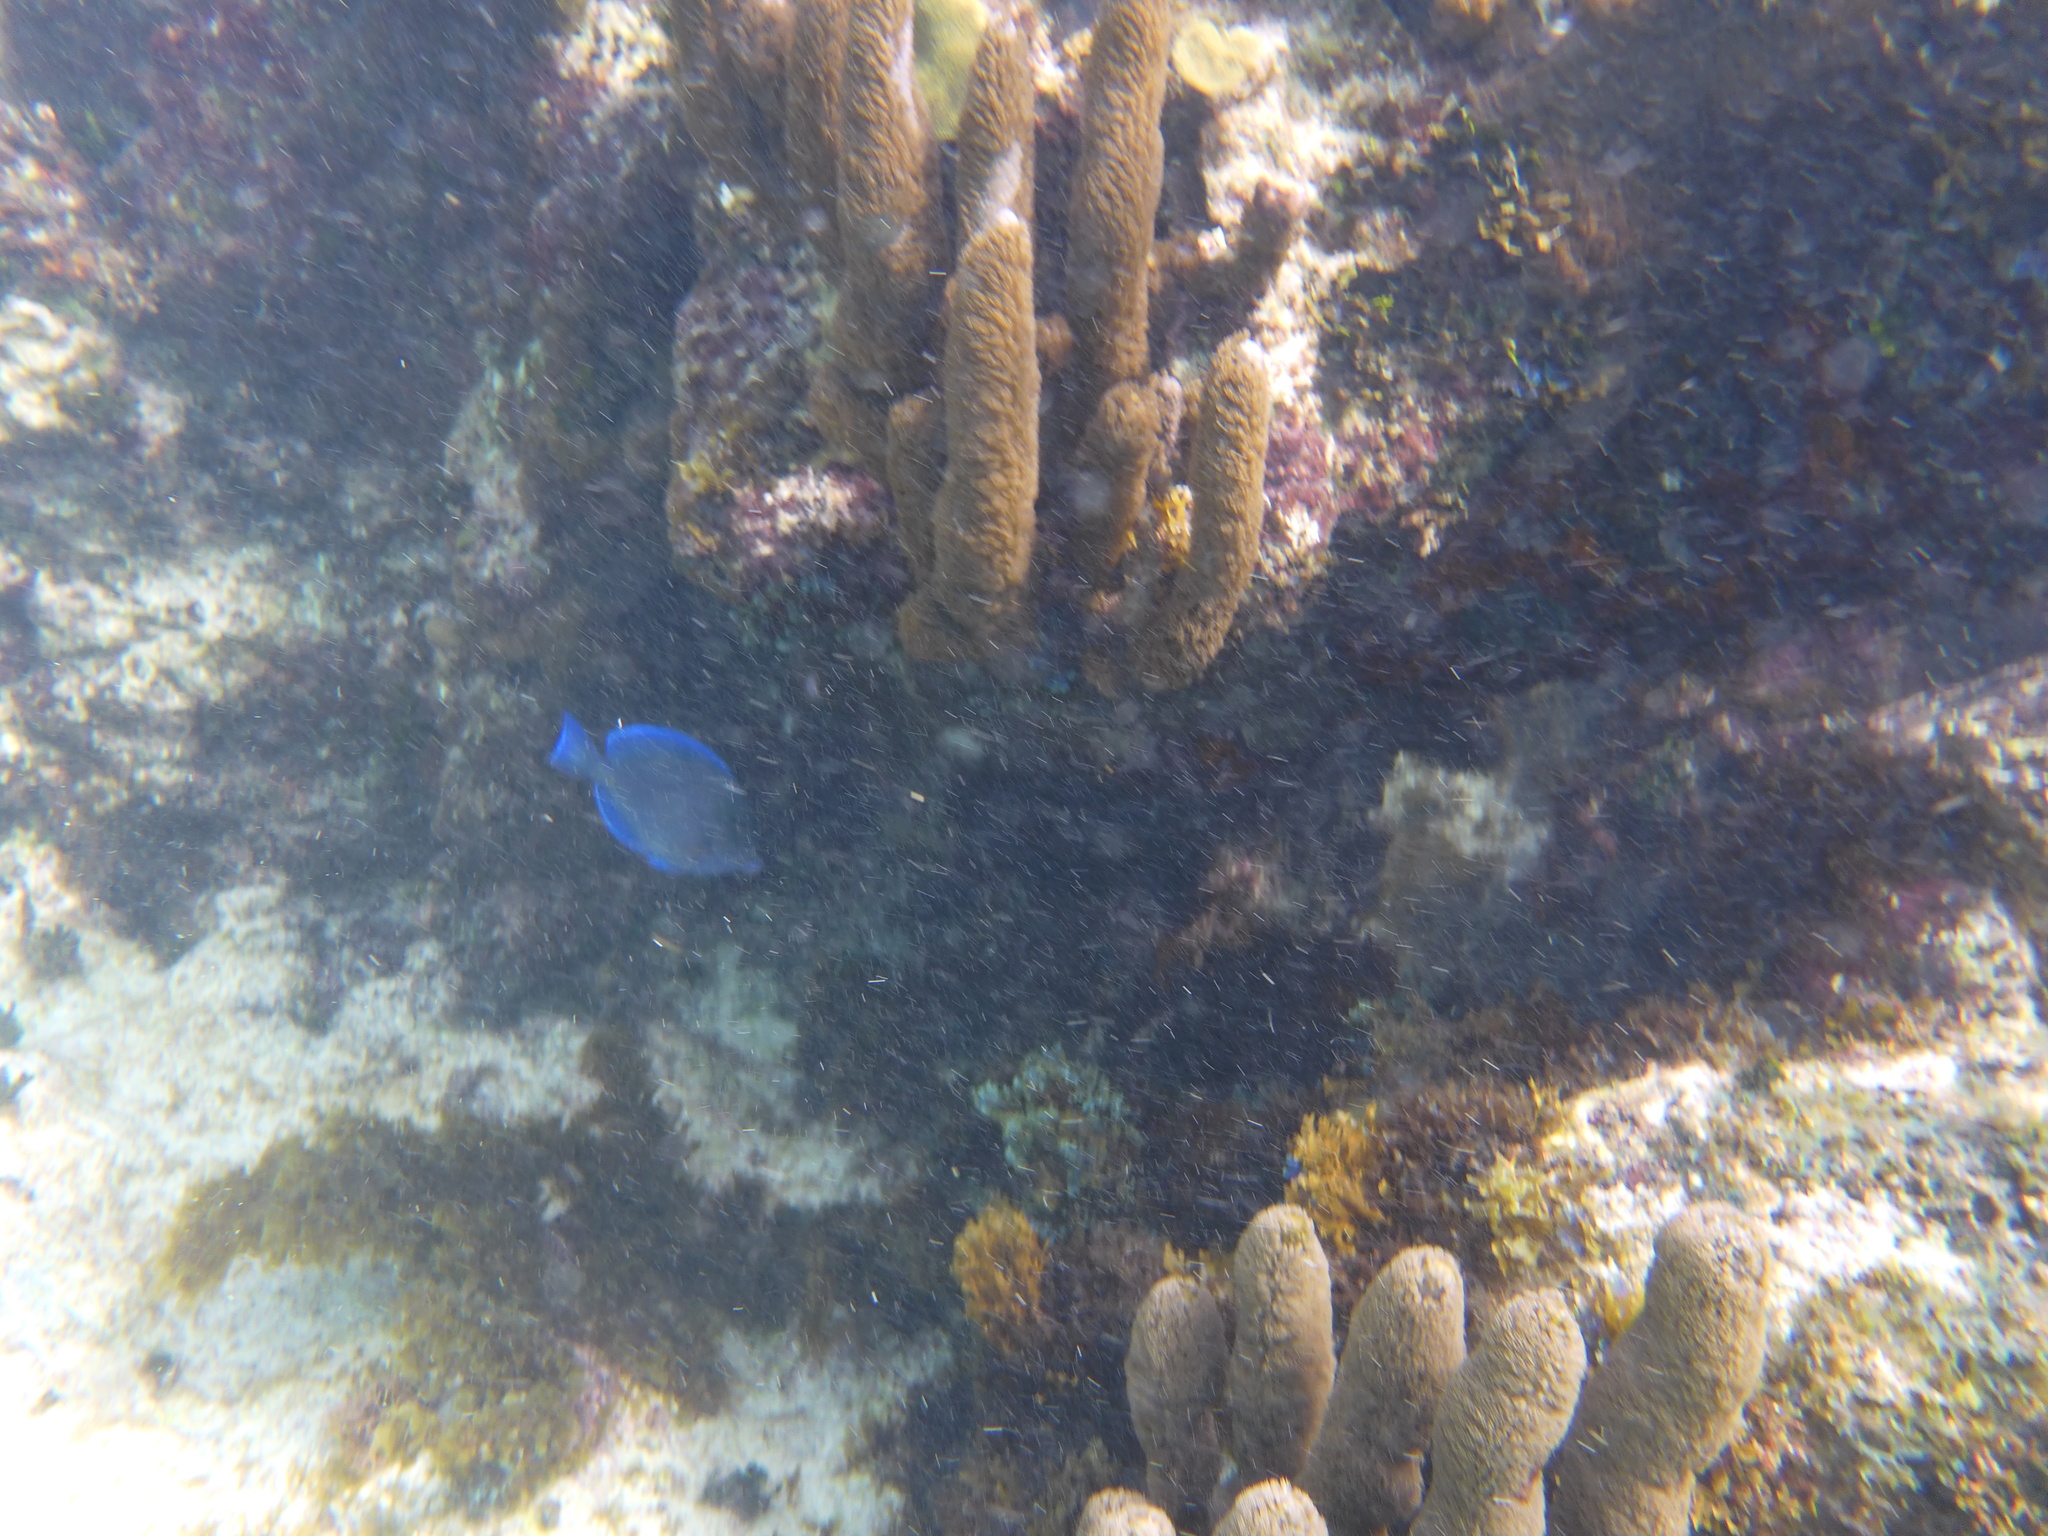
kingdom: Animalia
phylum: Chordata
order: Perciformes
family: Acanthuridae
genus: Acanthurus
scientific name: Acanthurus coeruleus
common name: Blue tang
